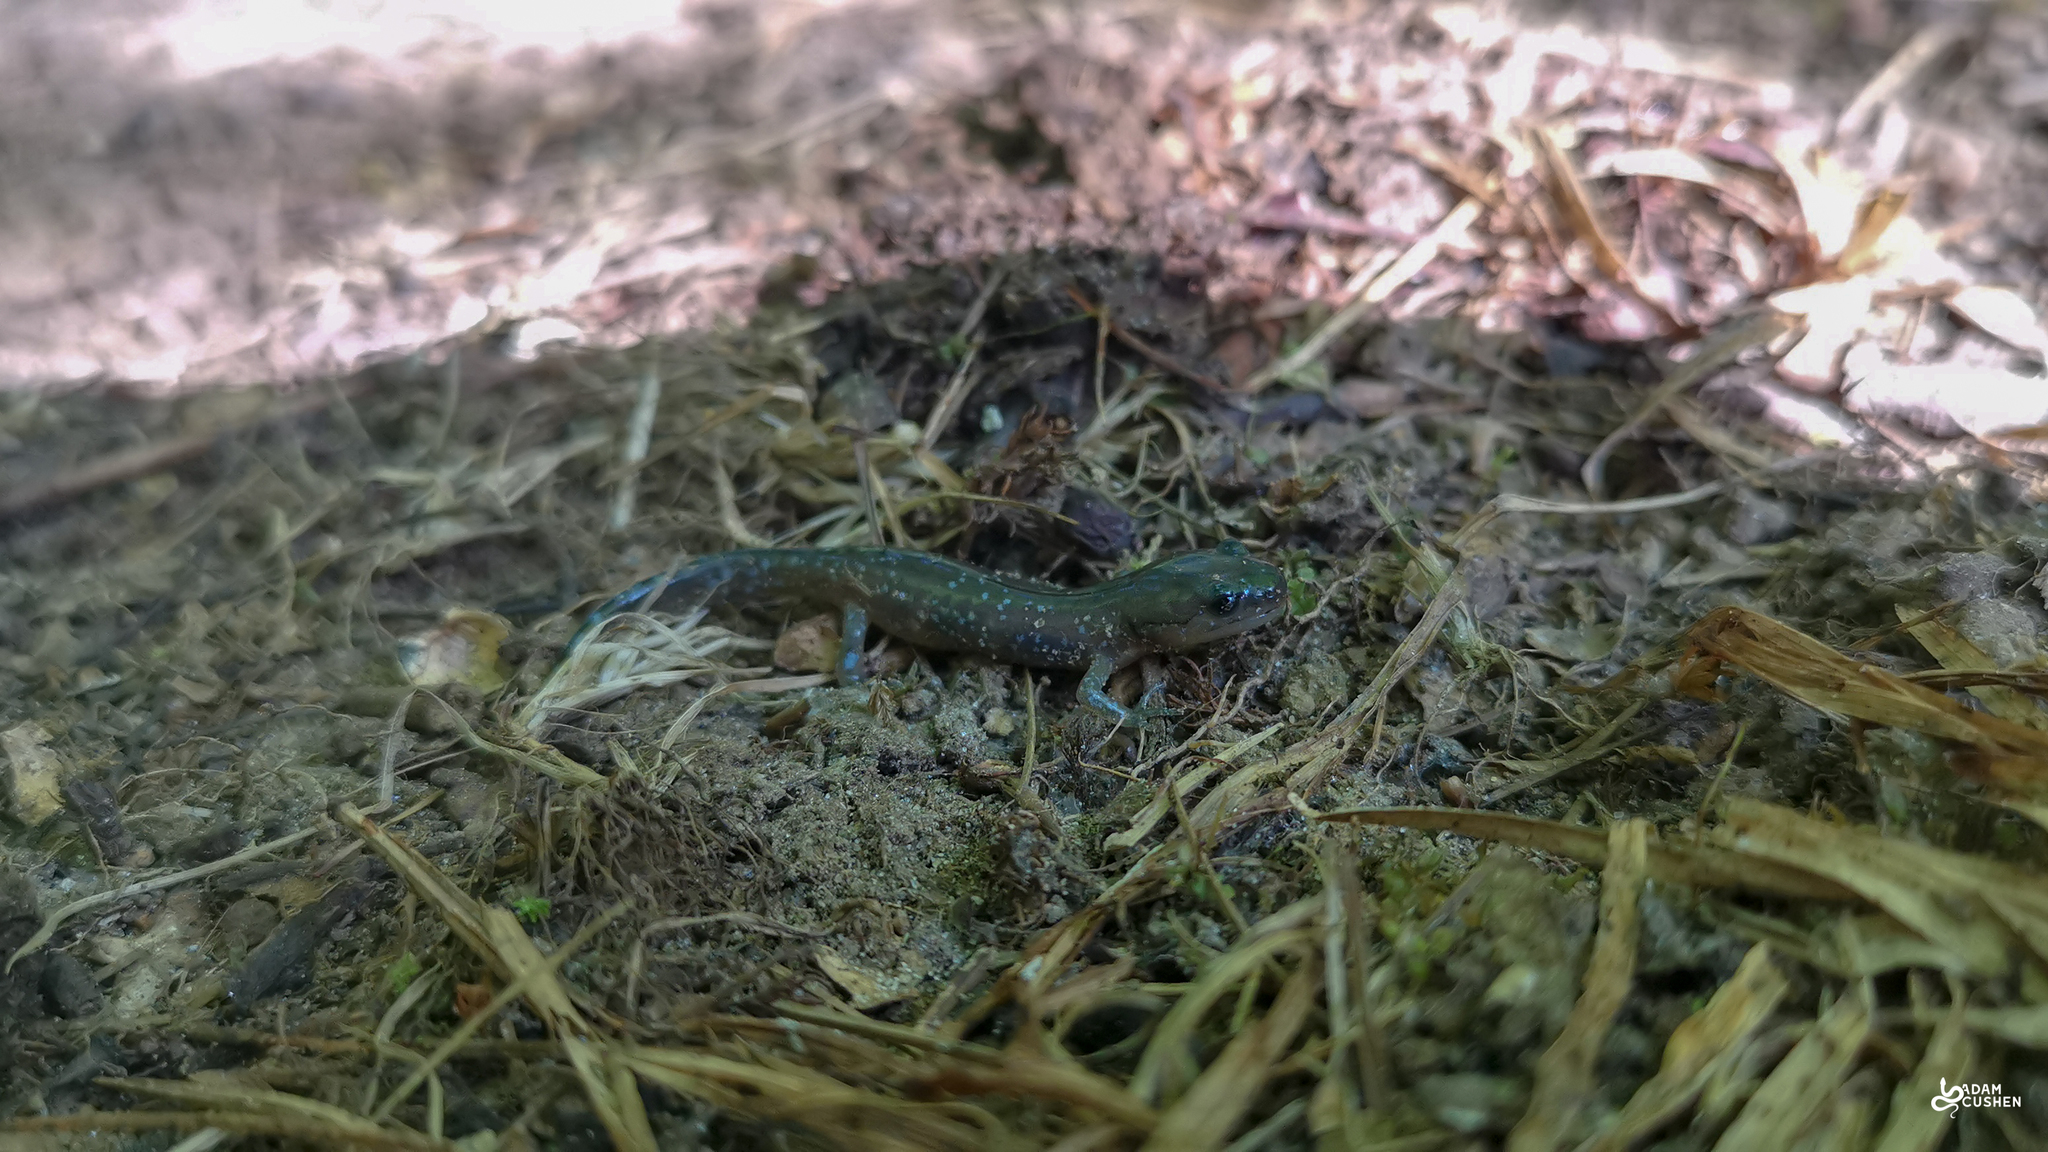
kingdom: Animalia
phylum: Chordata
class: Amphibia
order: Caudata
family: Ambystomatidae
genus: Ambystoma
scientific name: Ambystoma laterale
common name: Blue-spotted salamander
